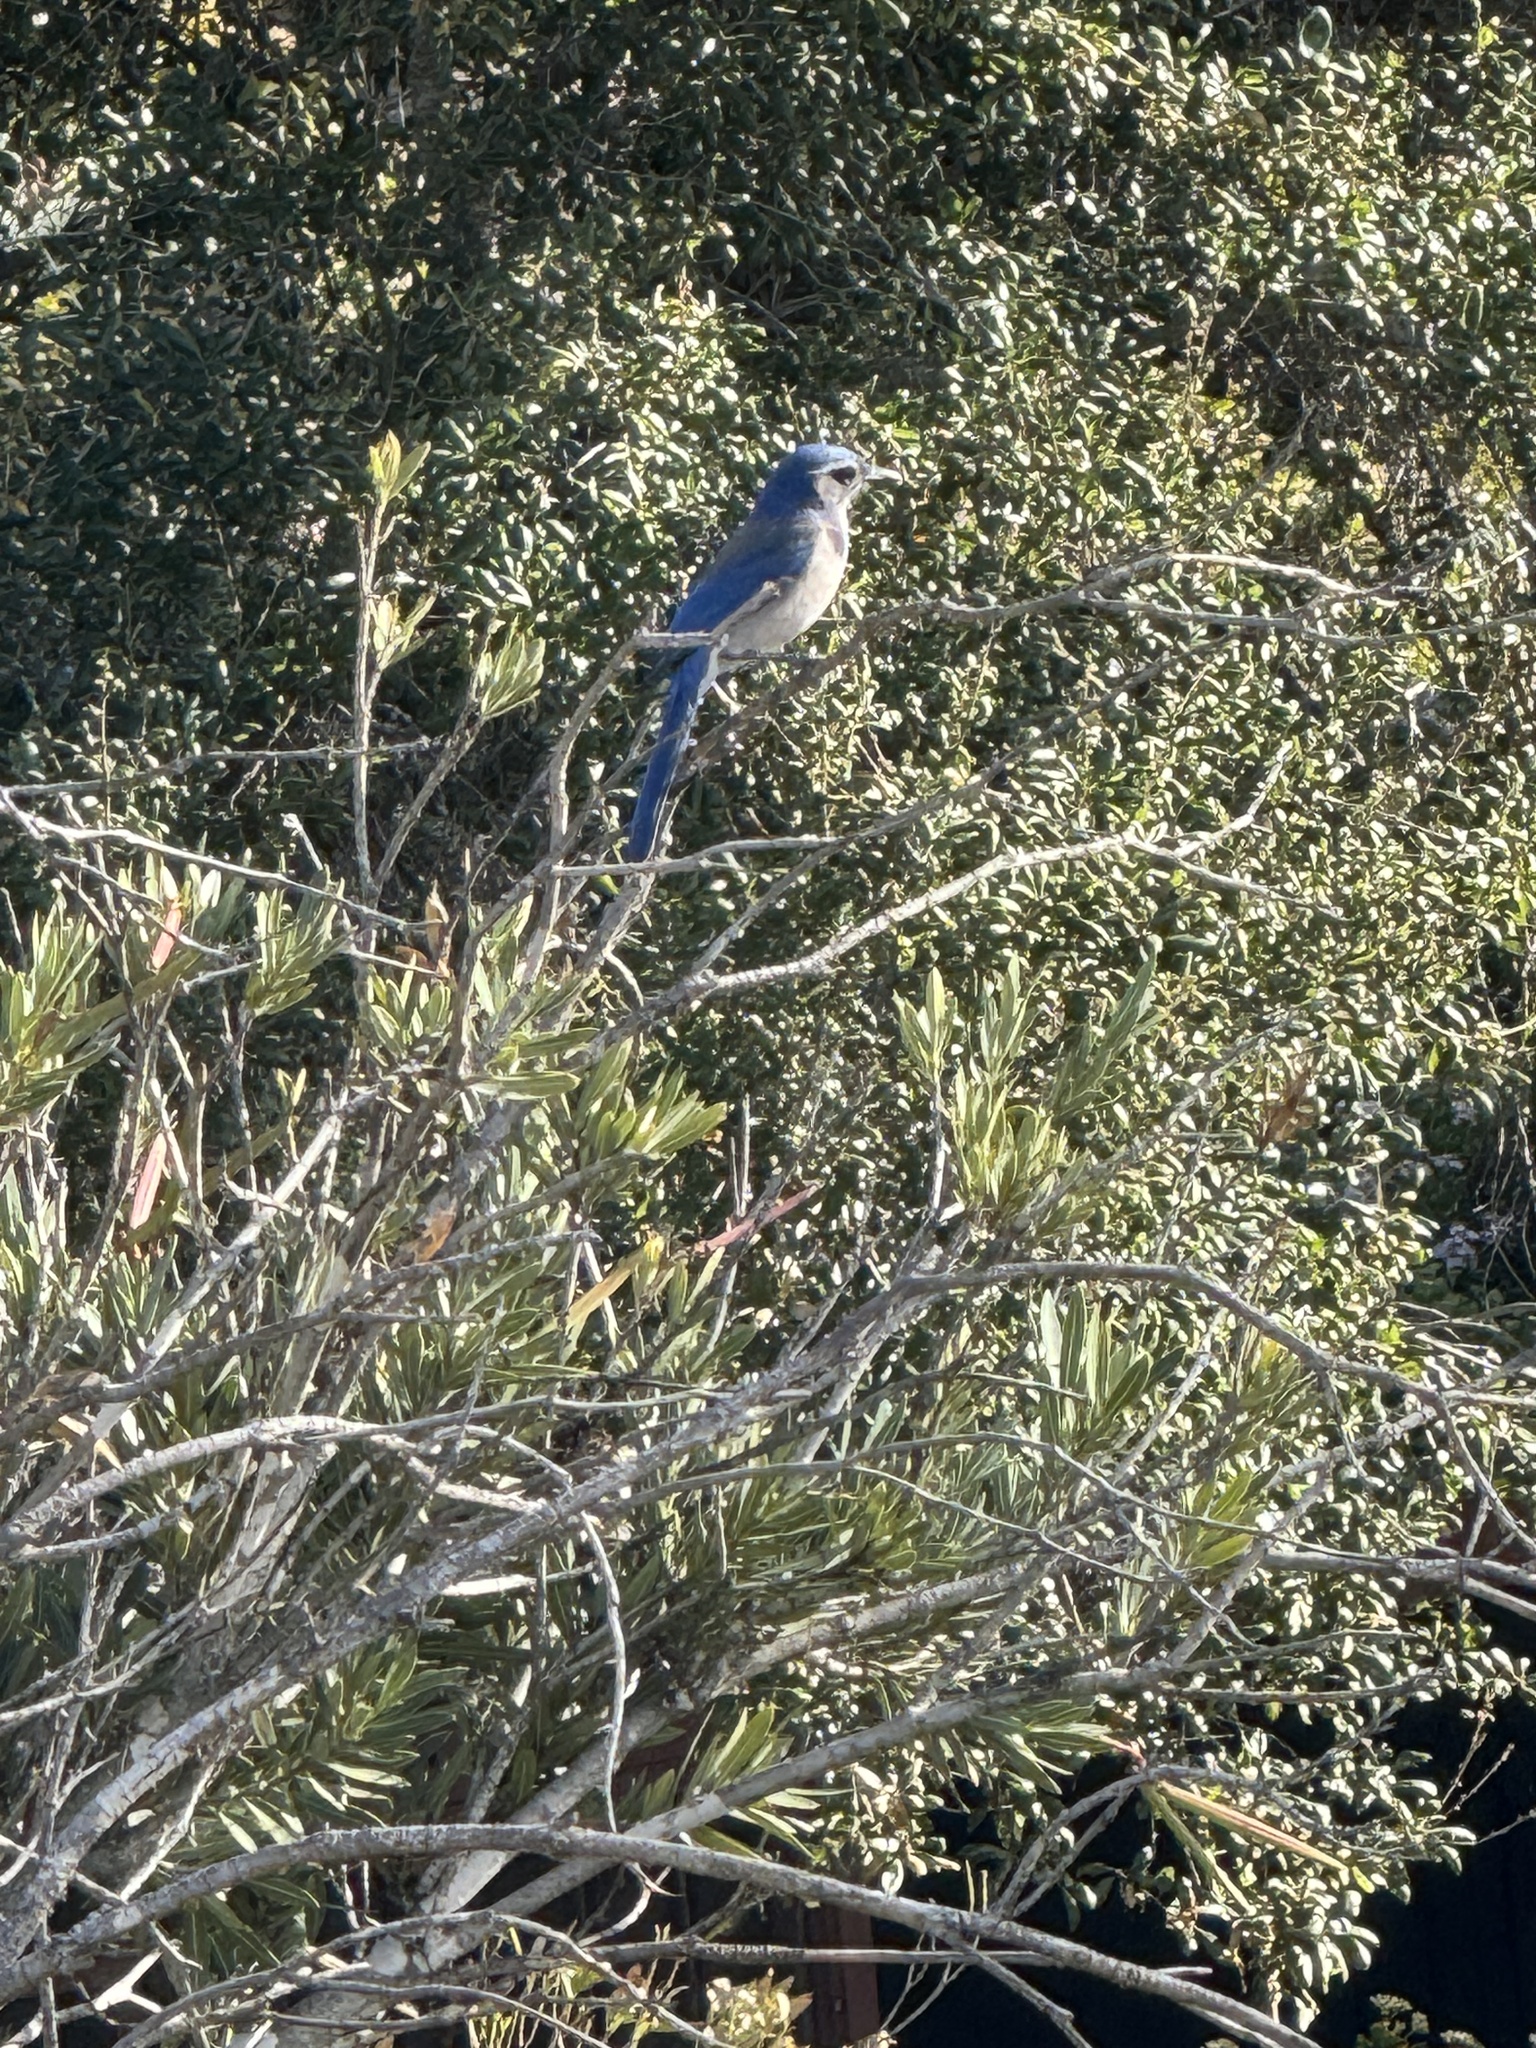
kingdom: Animalia
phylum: Chordata
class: Aves
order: Passeriformes
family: Corvidae
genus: Aphelocoma
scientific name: Aphelocoma californica
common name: California scrub-jay
